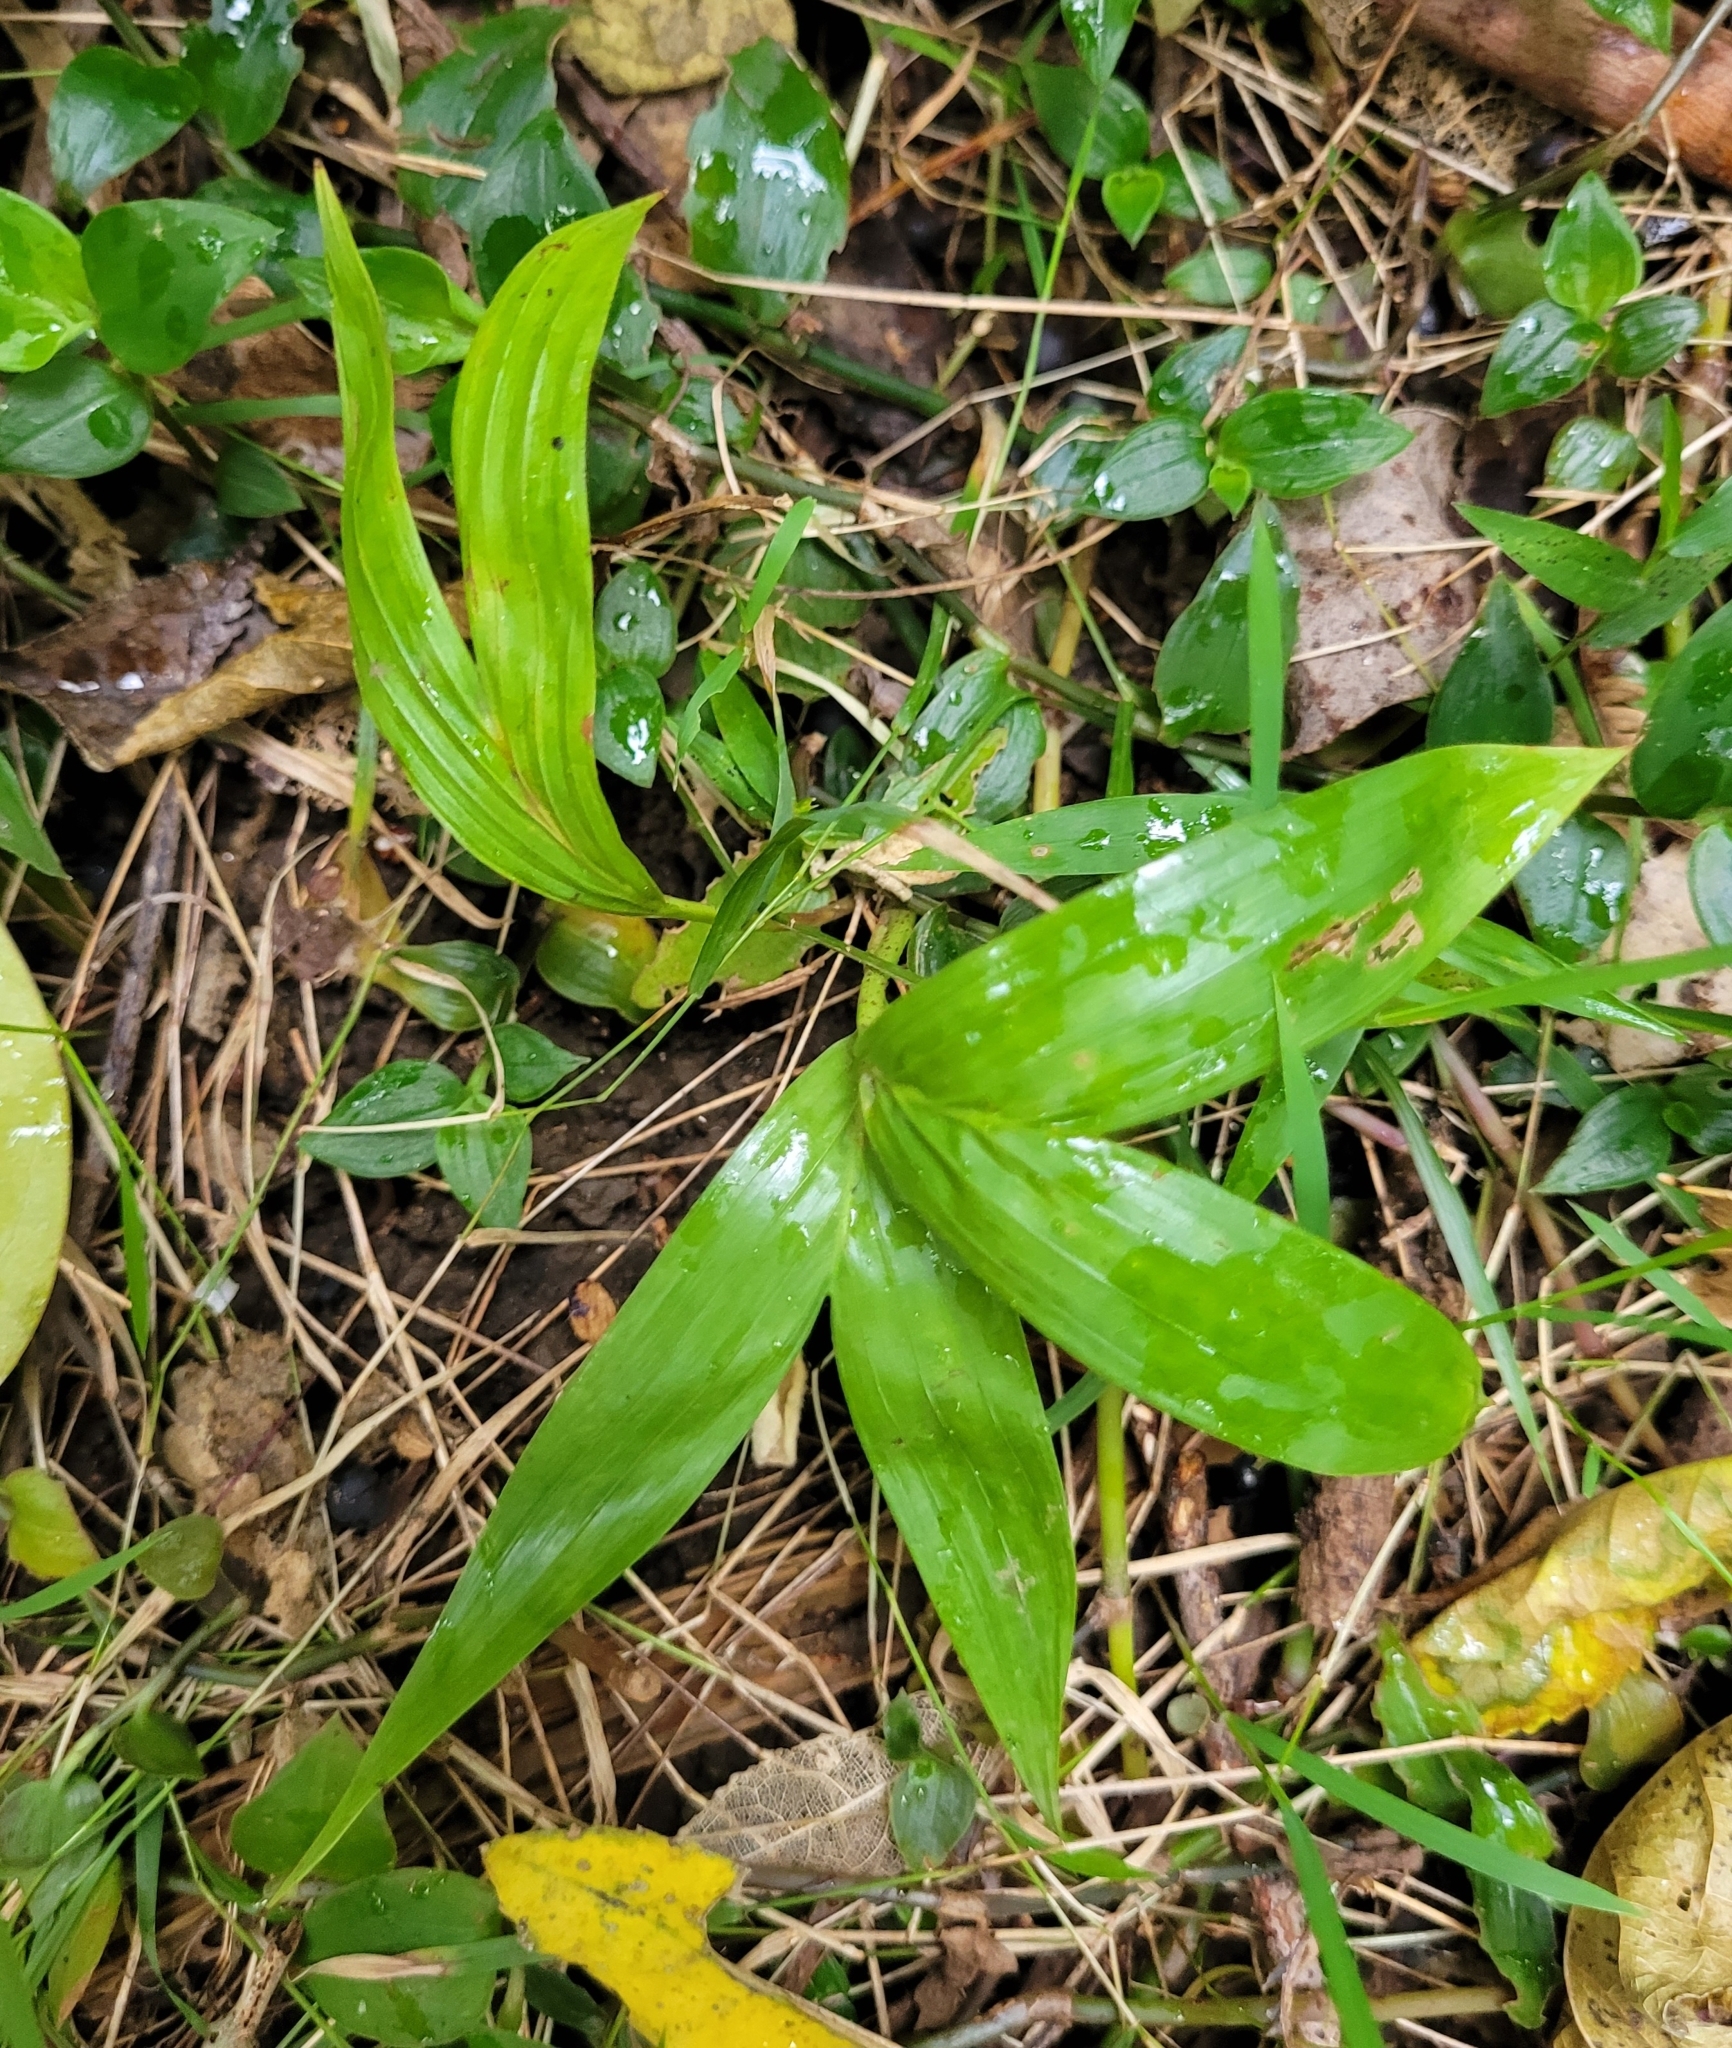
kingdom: Plantae
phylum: Tracheophyta
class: Liliopsida
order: Arecales
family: Arecaceae
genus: Archontophoenix
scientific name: Archontophoenix cunninghamiana
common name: Piccabeen bangalow palm
